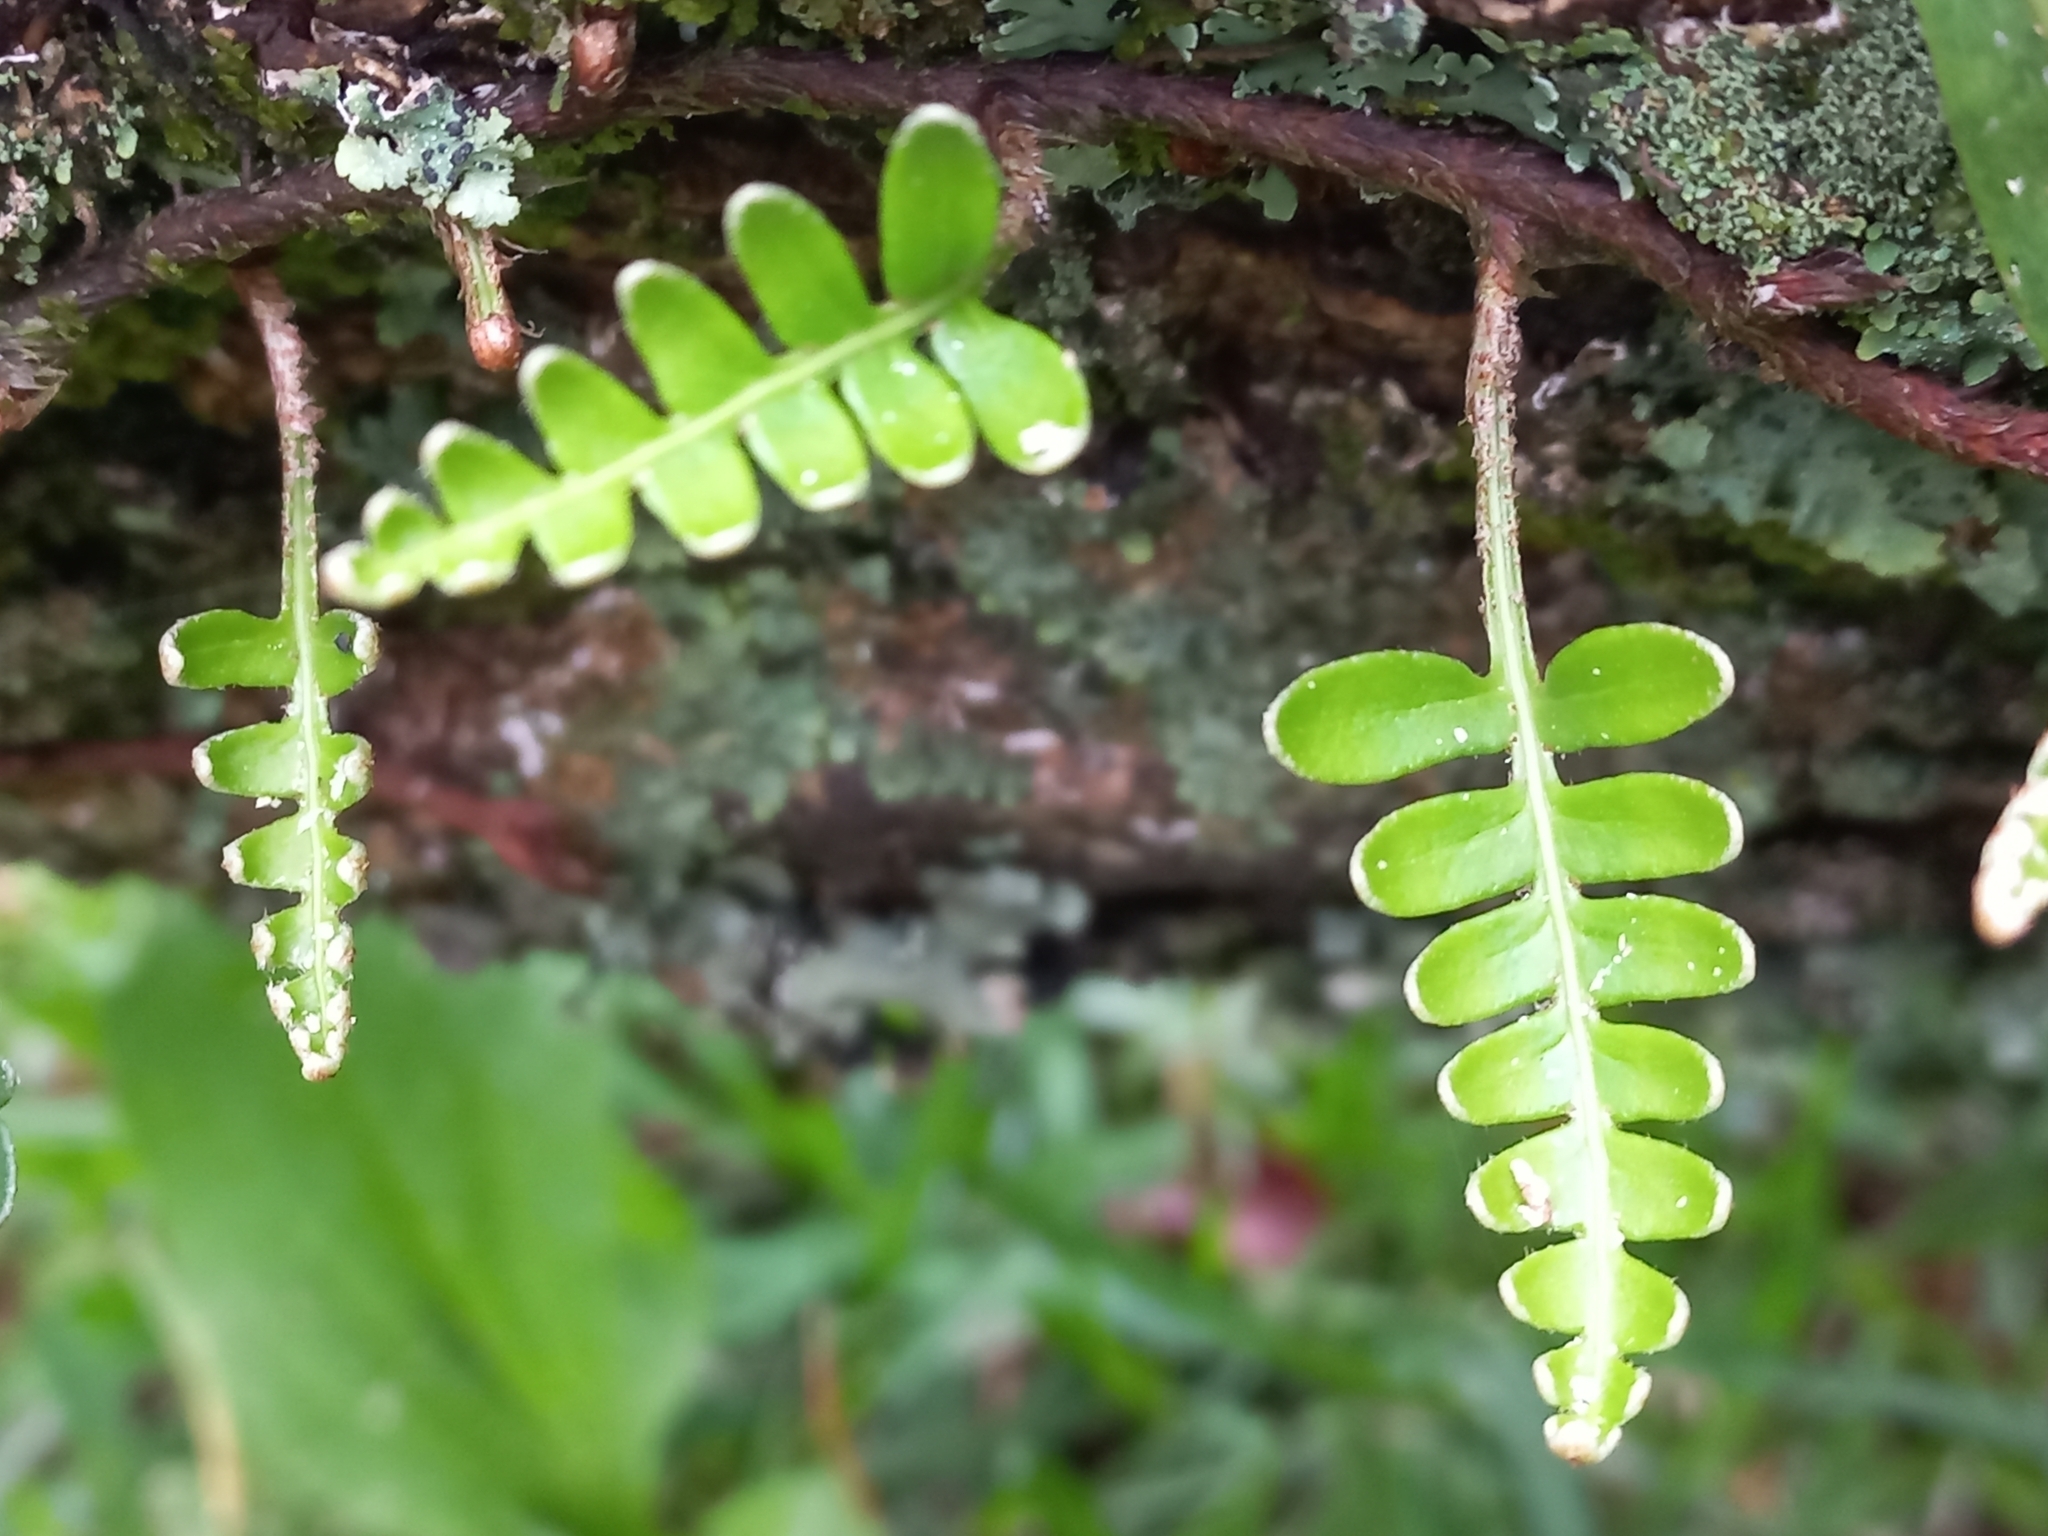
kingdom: Plantae
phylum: Tracheophyta
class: Polypodiopsida
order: Polypodiales
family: Polypodiaceae
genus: Pleopeltis
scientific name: Pleopeltis ecklonii
